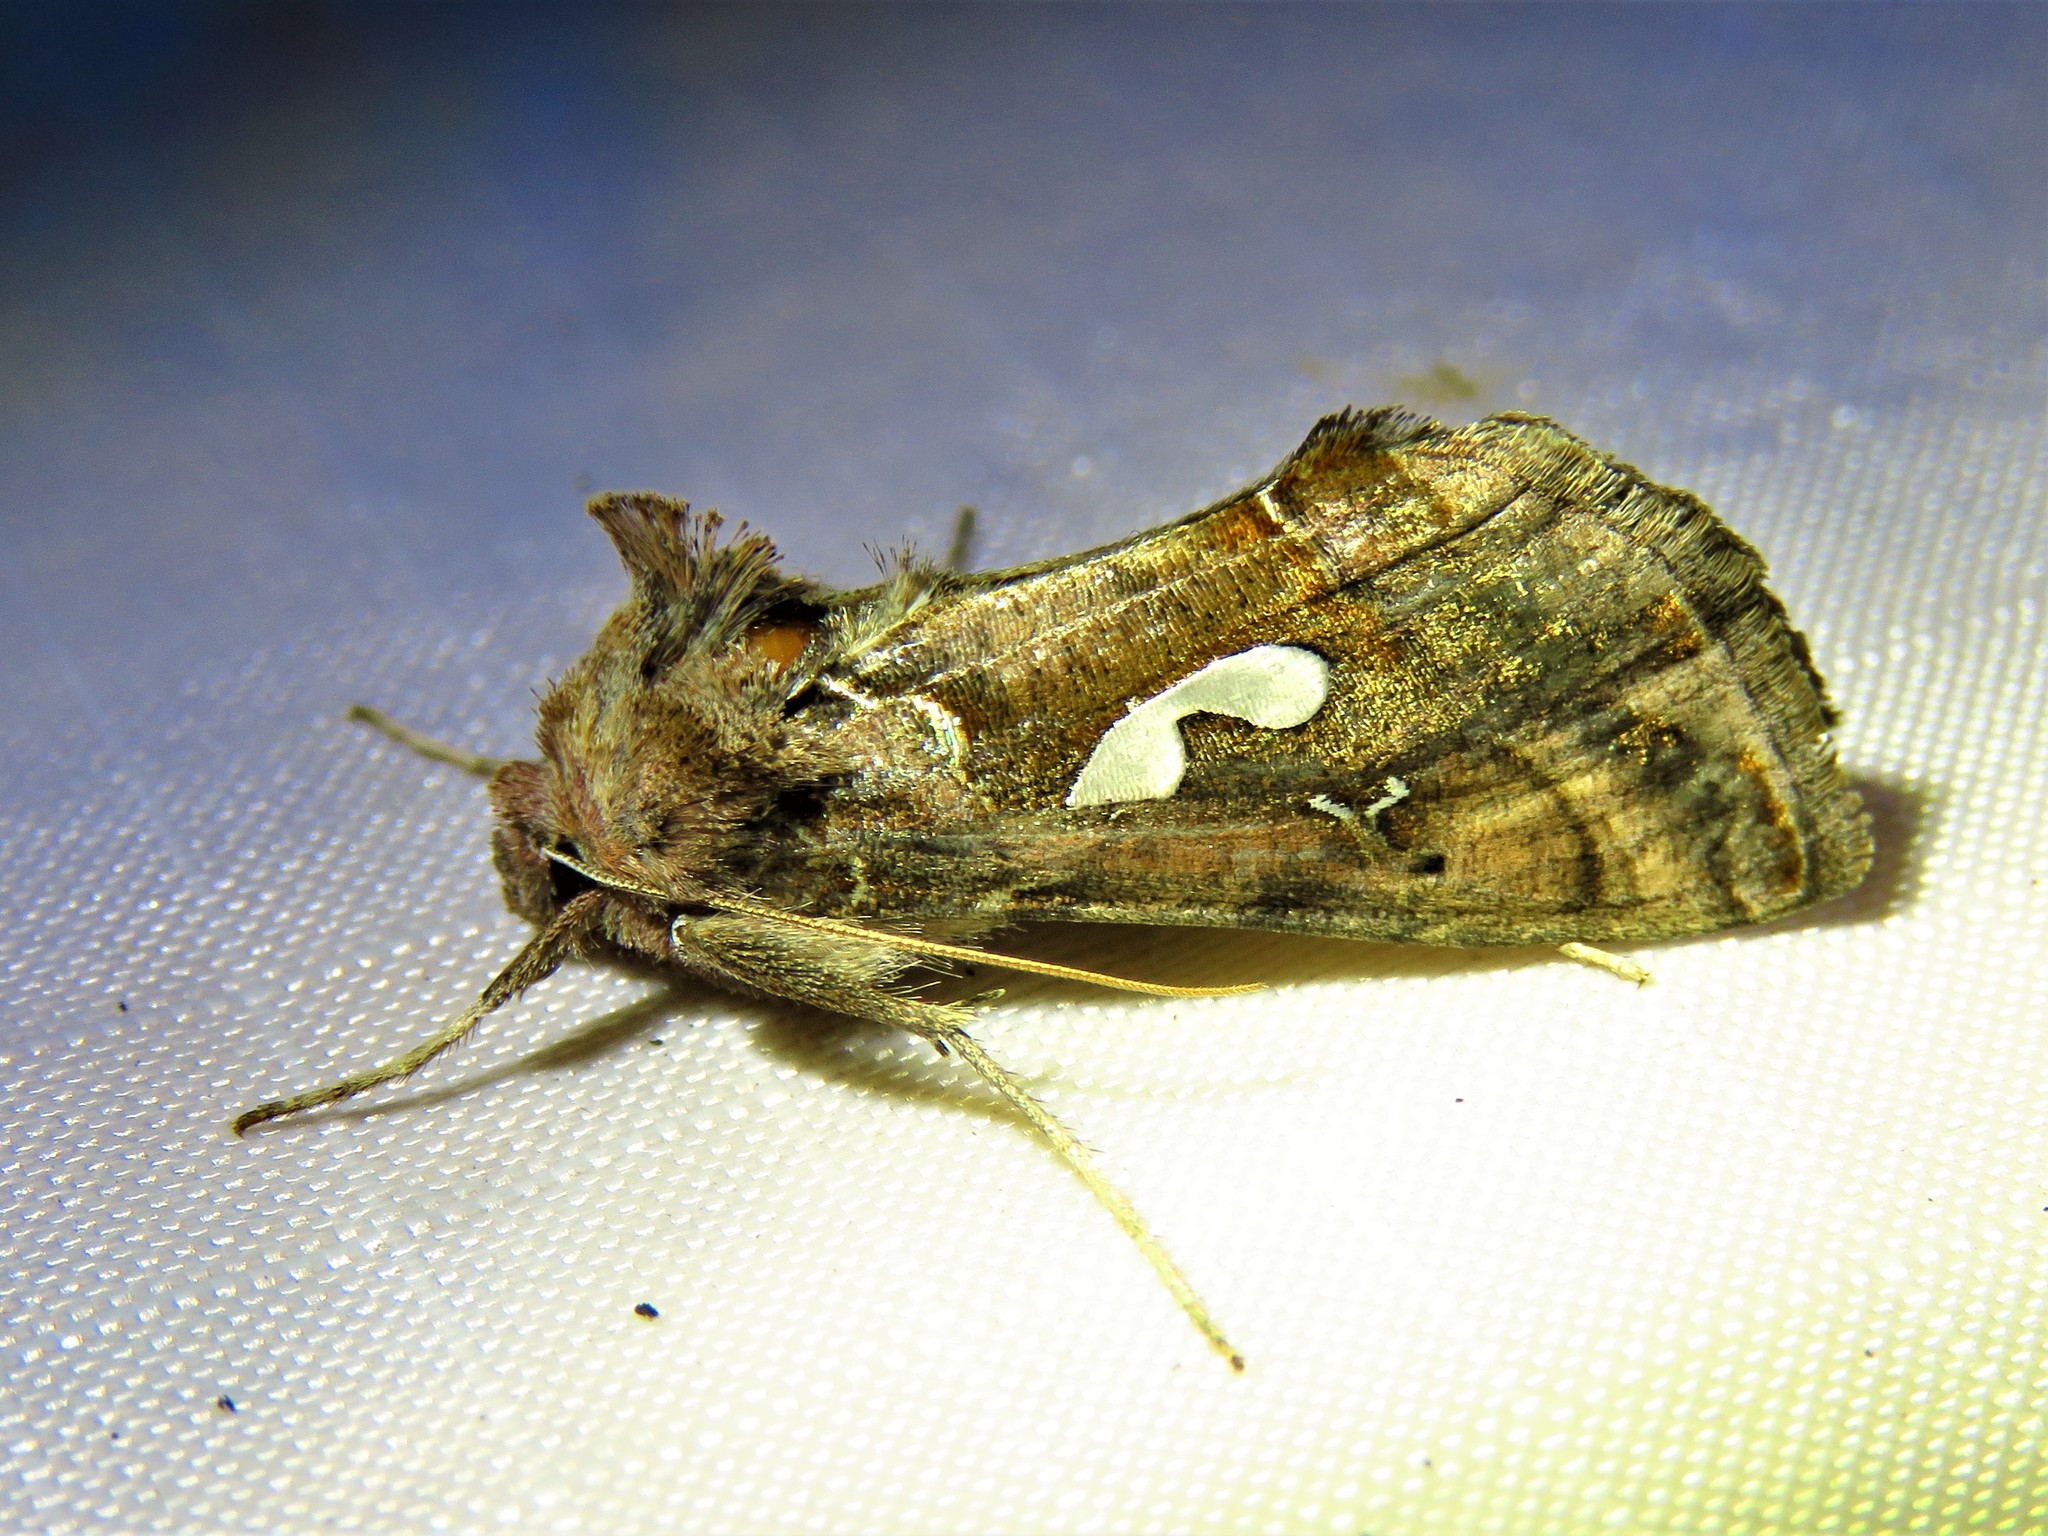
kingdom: Animalia
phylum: Arthropoda
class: Insecta
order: Lepidoptera
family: Noctuidae
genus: Megalographa
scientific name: Megalographa biloba
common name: Cutworm
